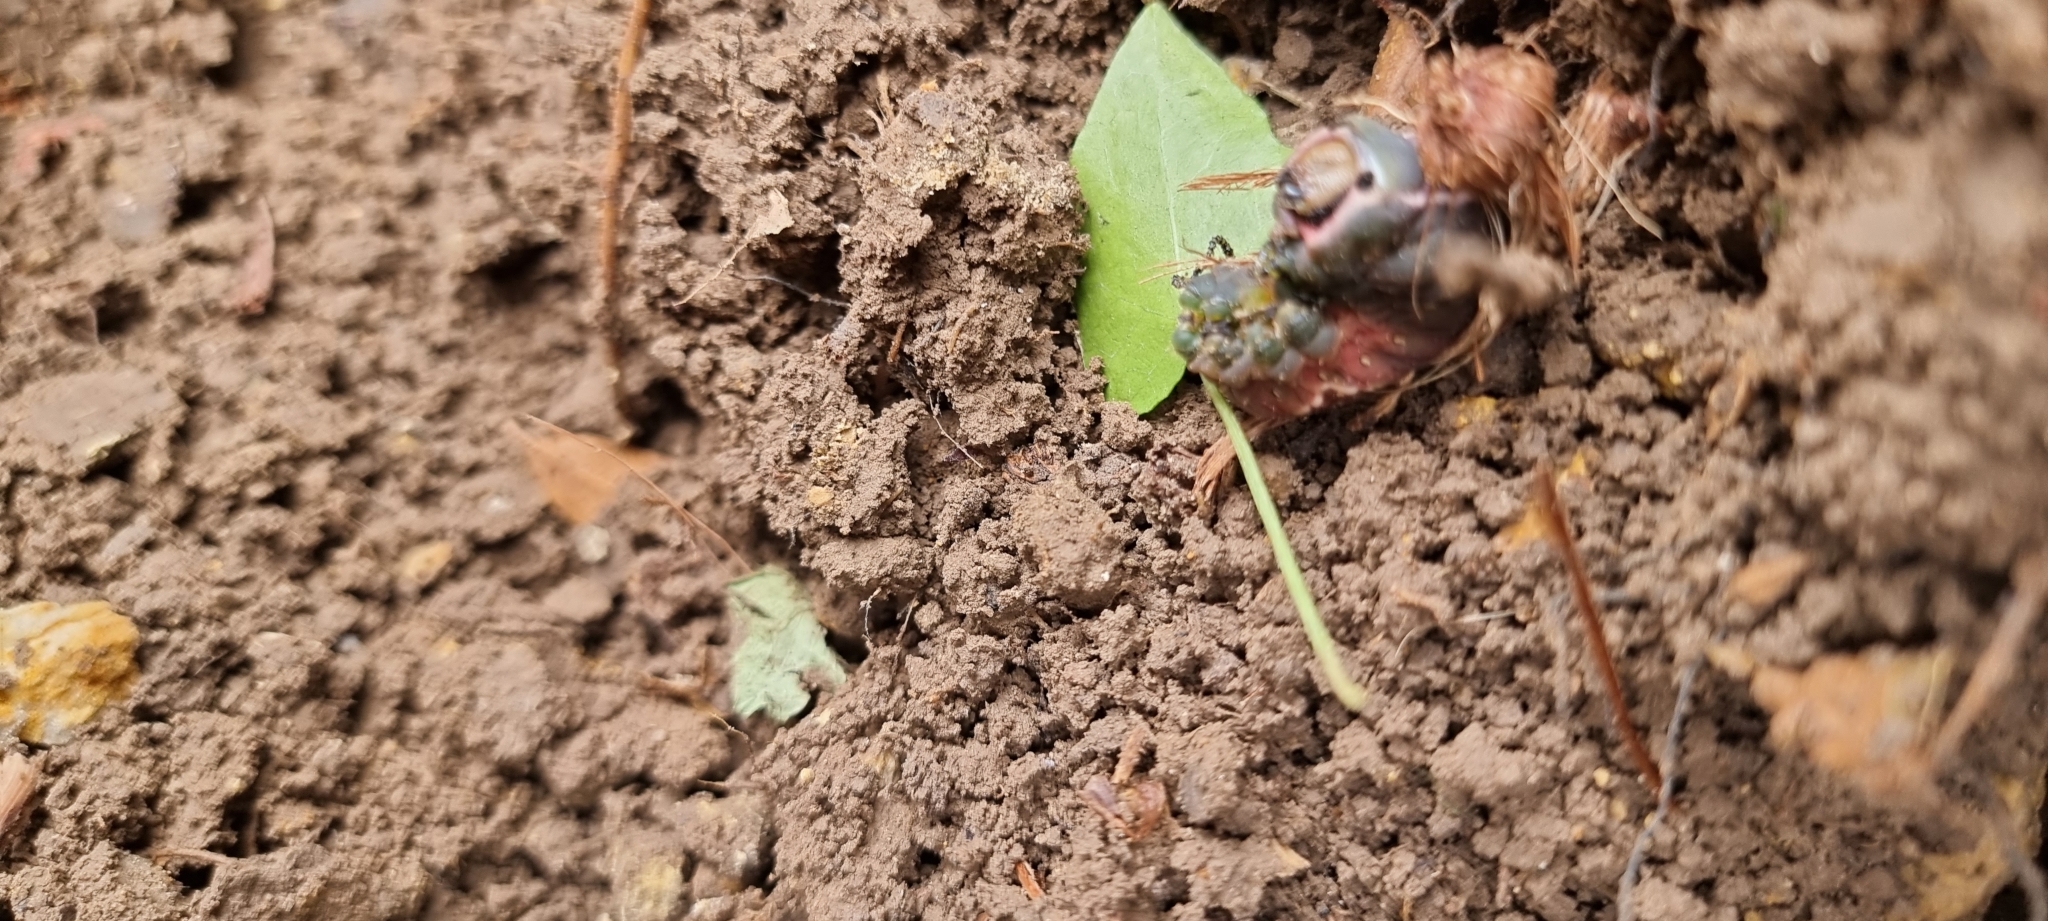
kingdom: Animalia
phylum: Arthropoda
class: Insecta
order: Lepidoptera
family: Notodontidae
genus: Cerura
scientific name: Cerura vinula
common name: Puss moth
